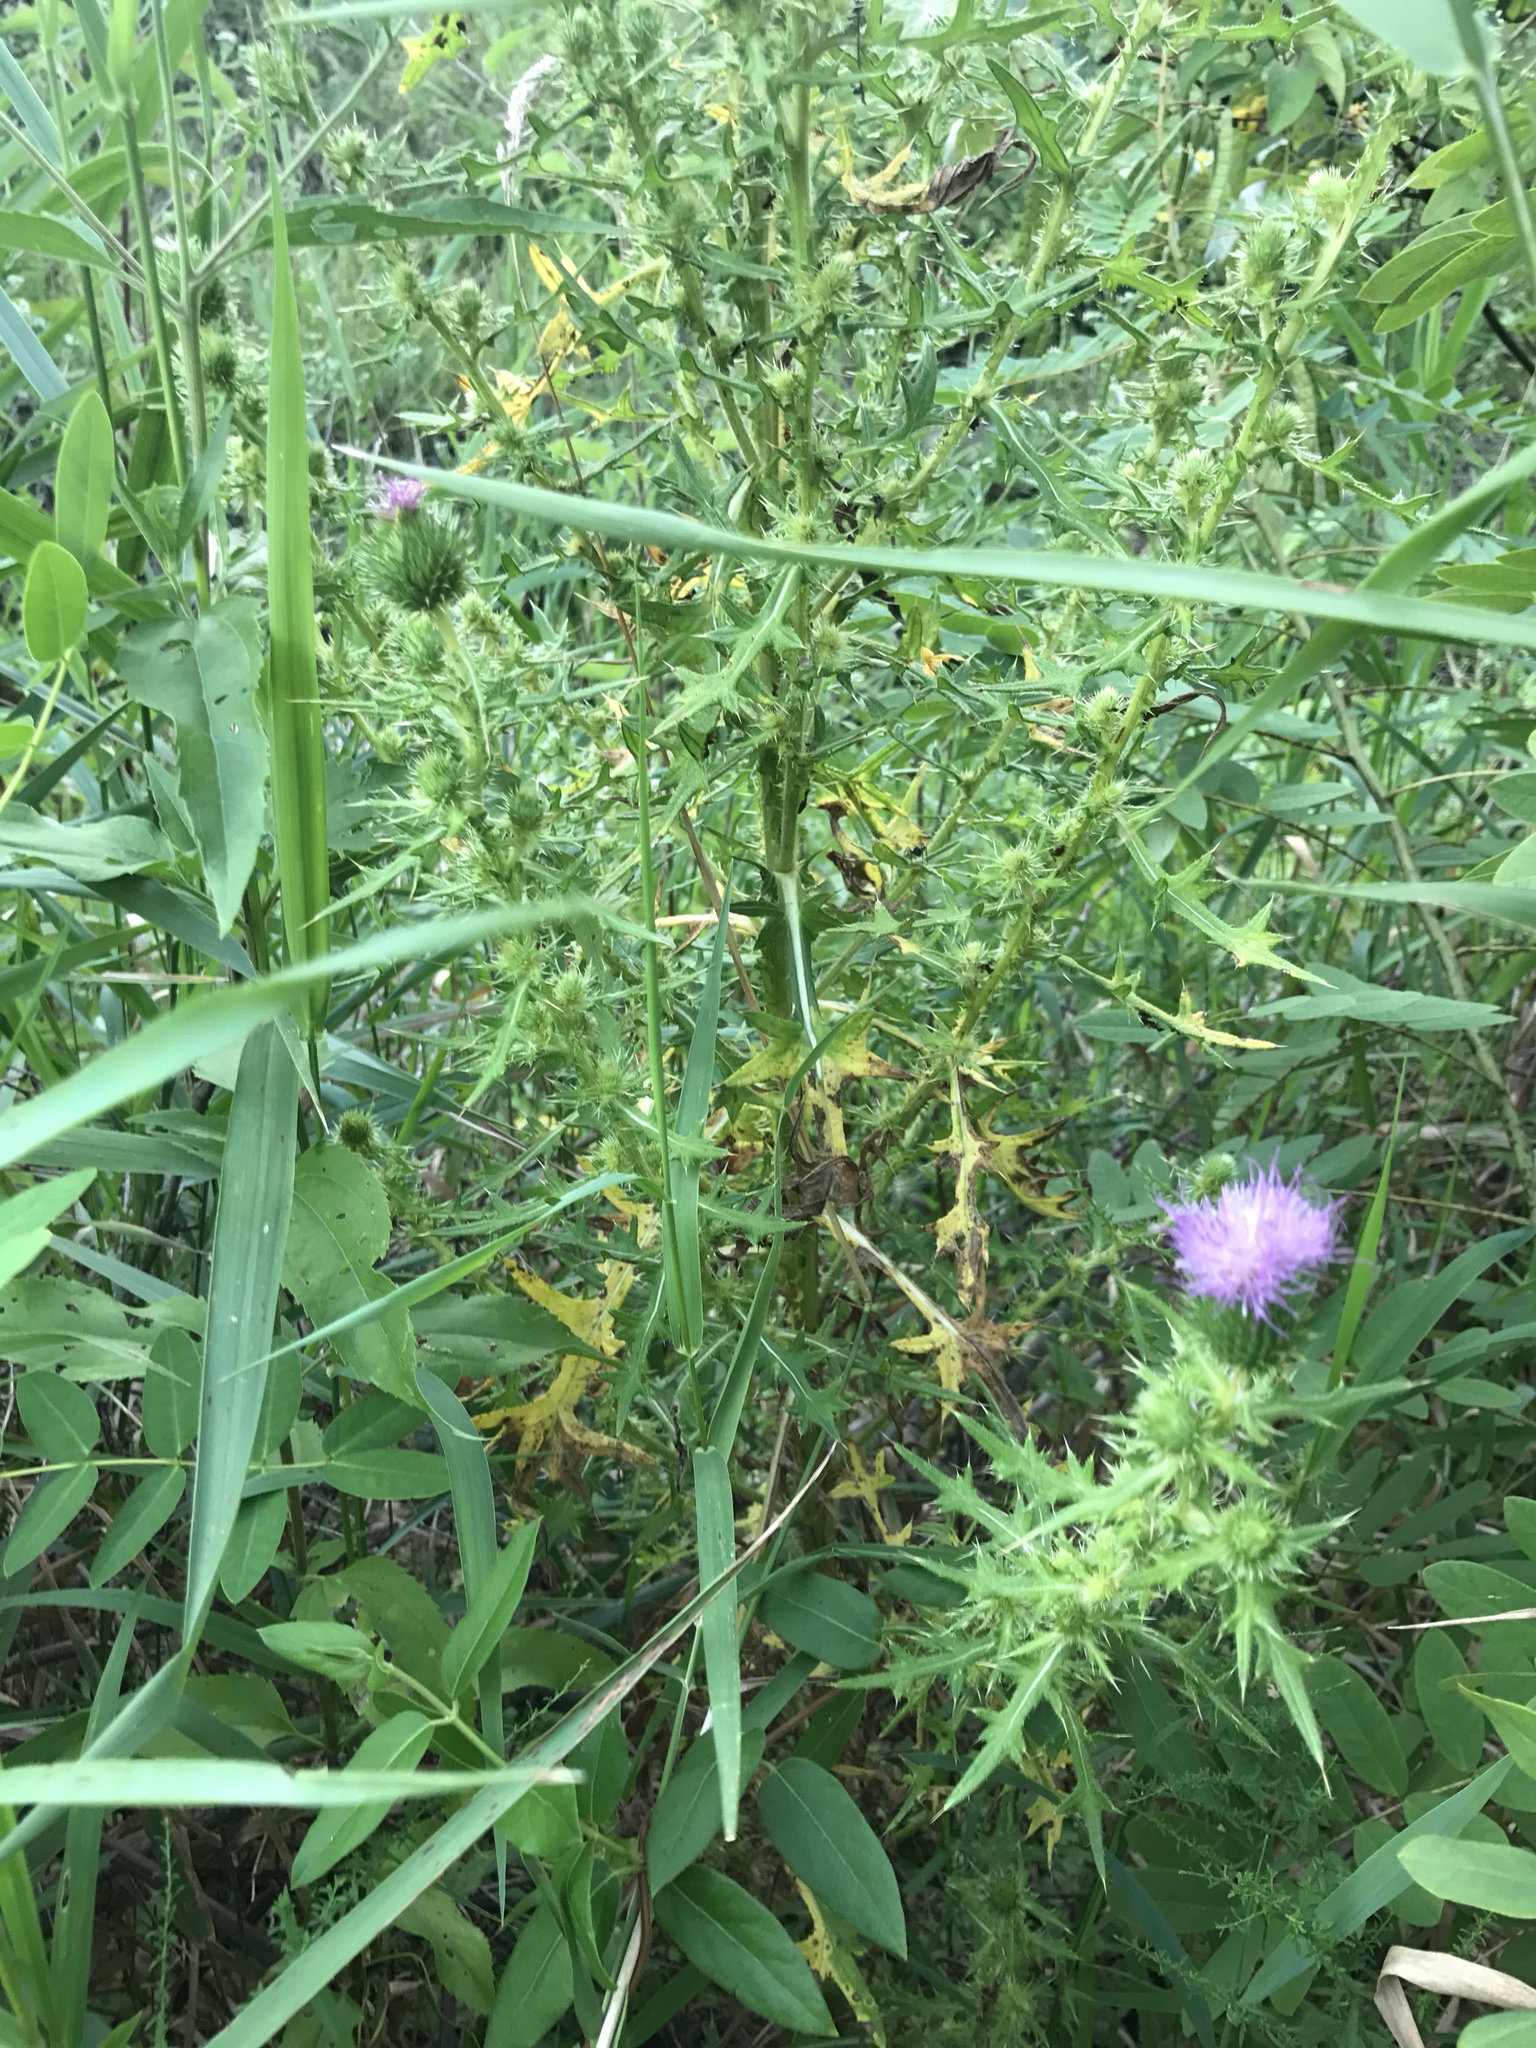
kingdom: Plantae
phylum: Tracheophyta
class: Magnoliopsida
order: Asterales
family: Asteraceae
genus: Cirsium
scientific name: Cirsium vulgare
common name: Bull thistle
